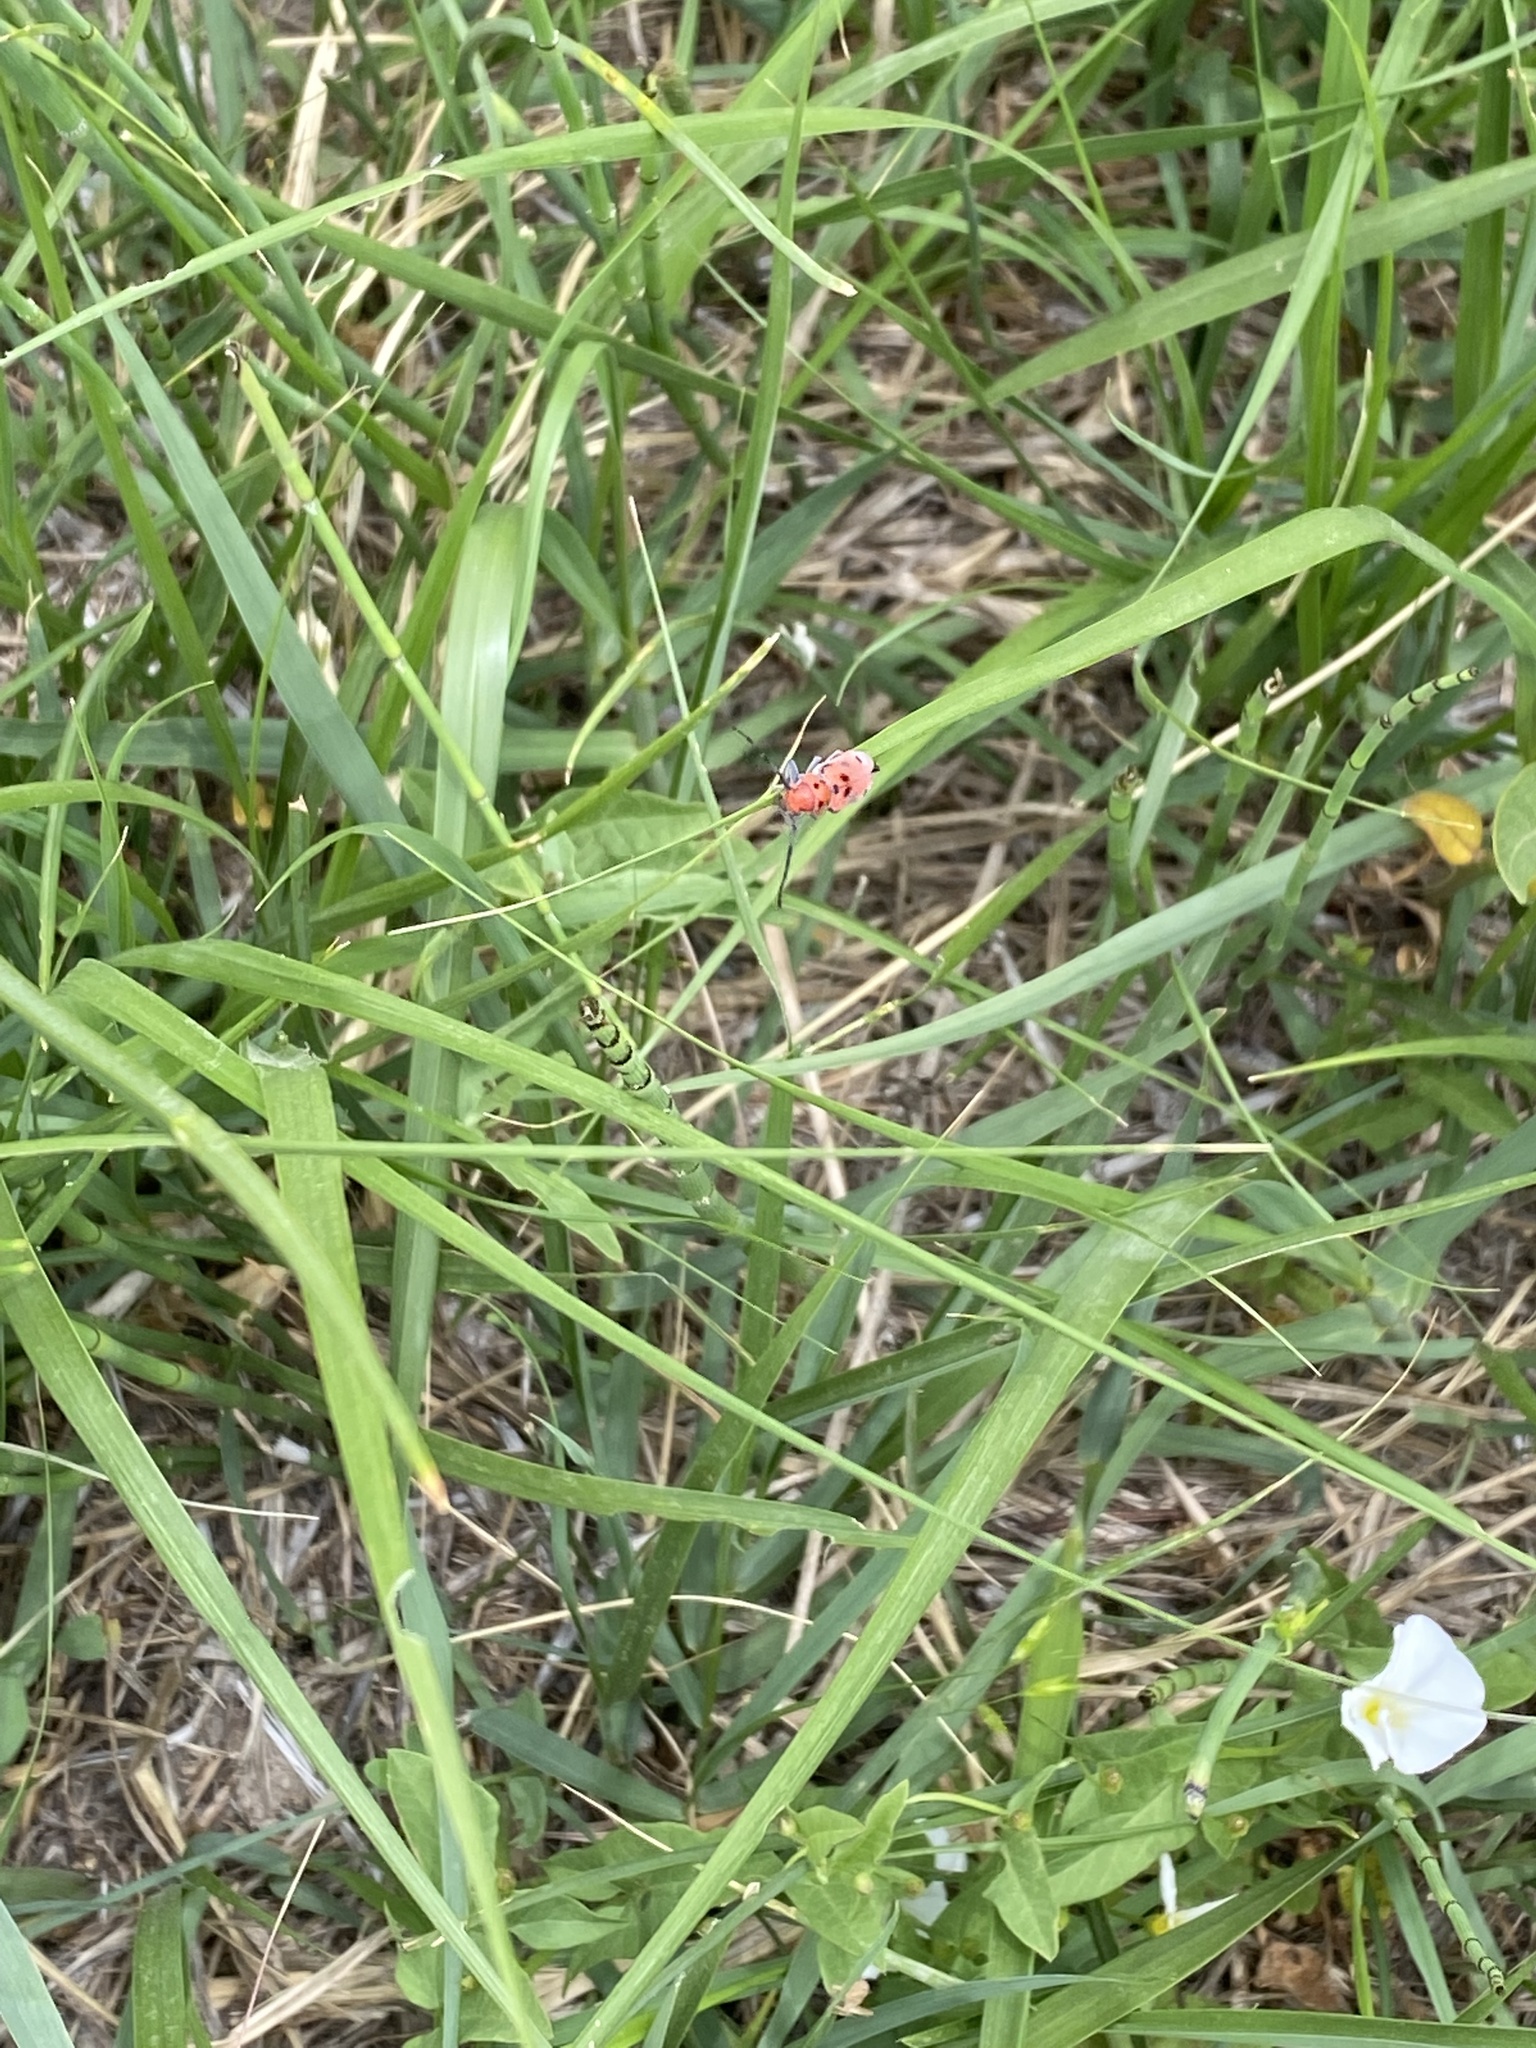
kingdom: Animalia
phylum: Arthropoda
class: Insecta
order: Coleoptera
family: Cerambycidae
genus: Tetraopes
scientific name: Tetraopes femoratus
